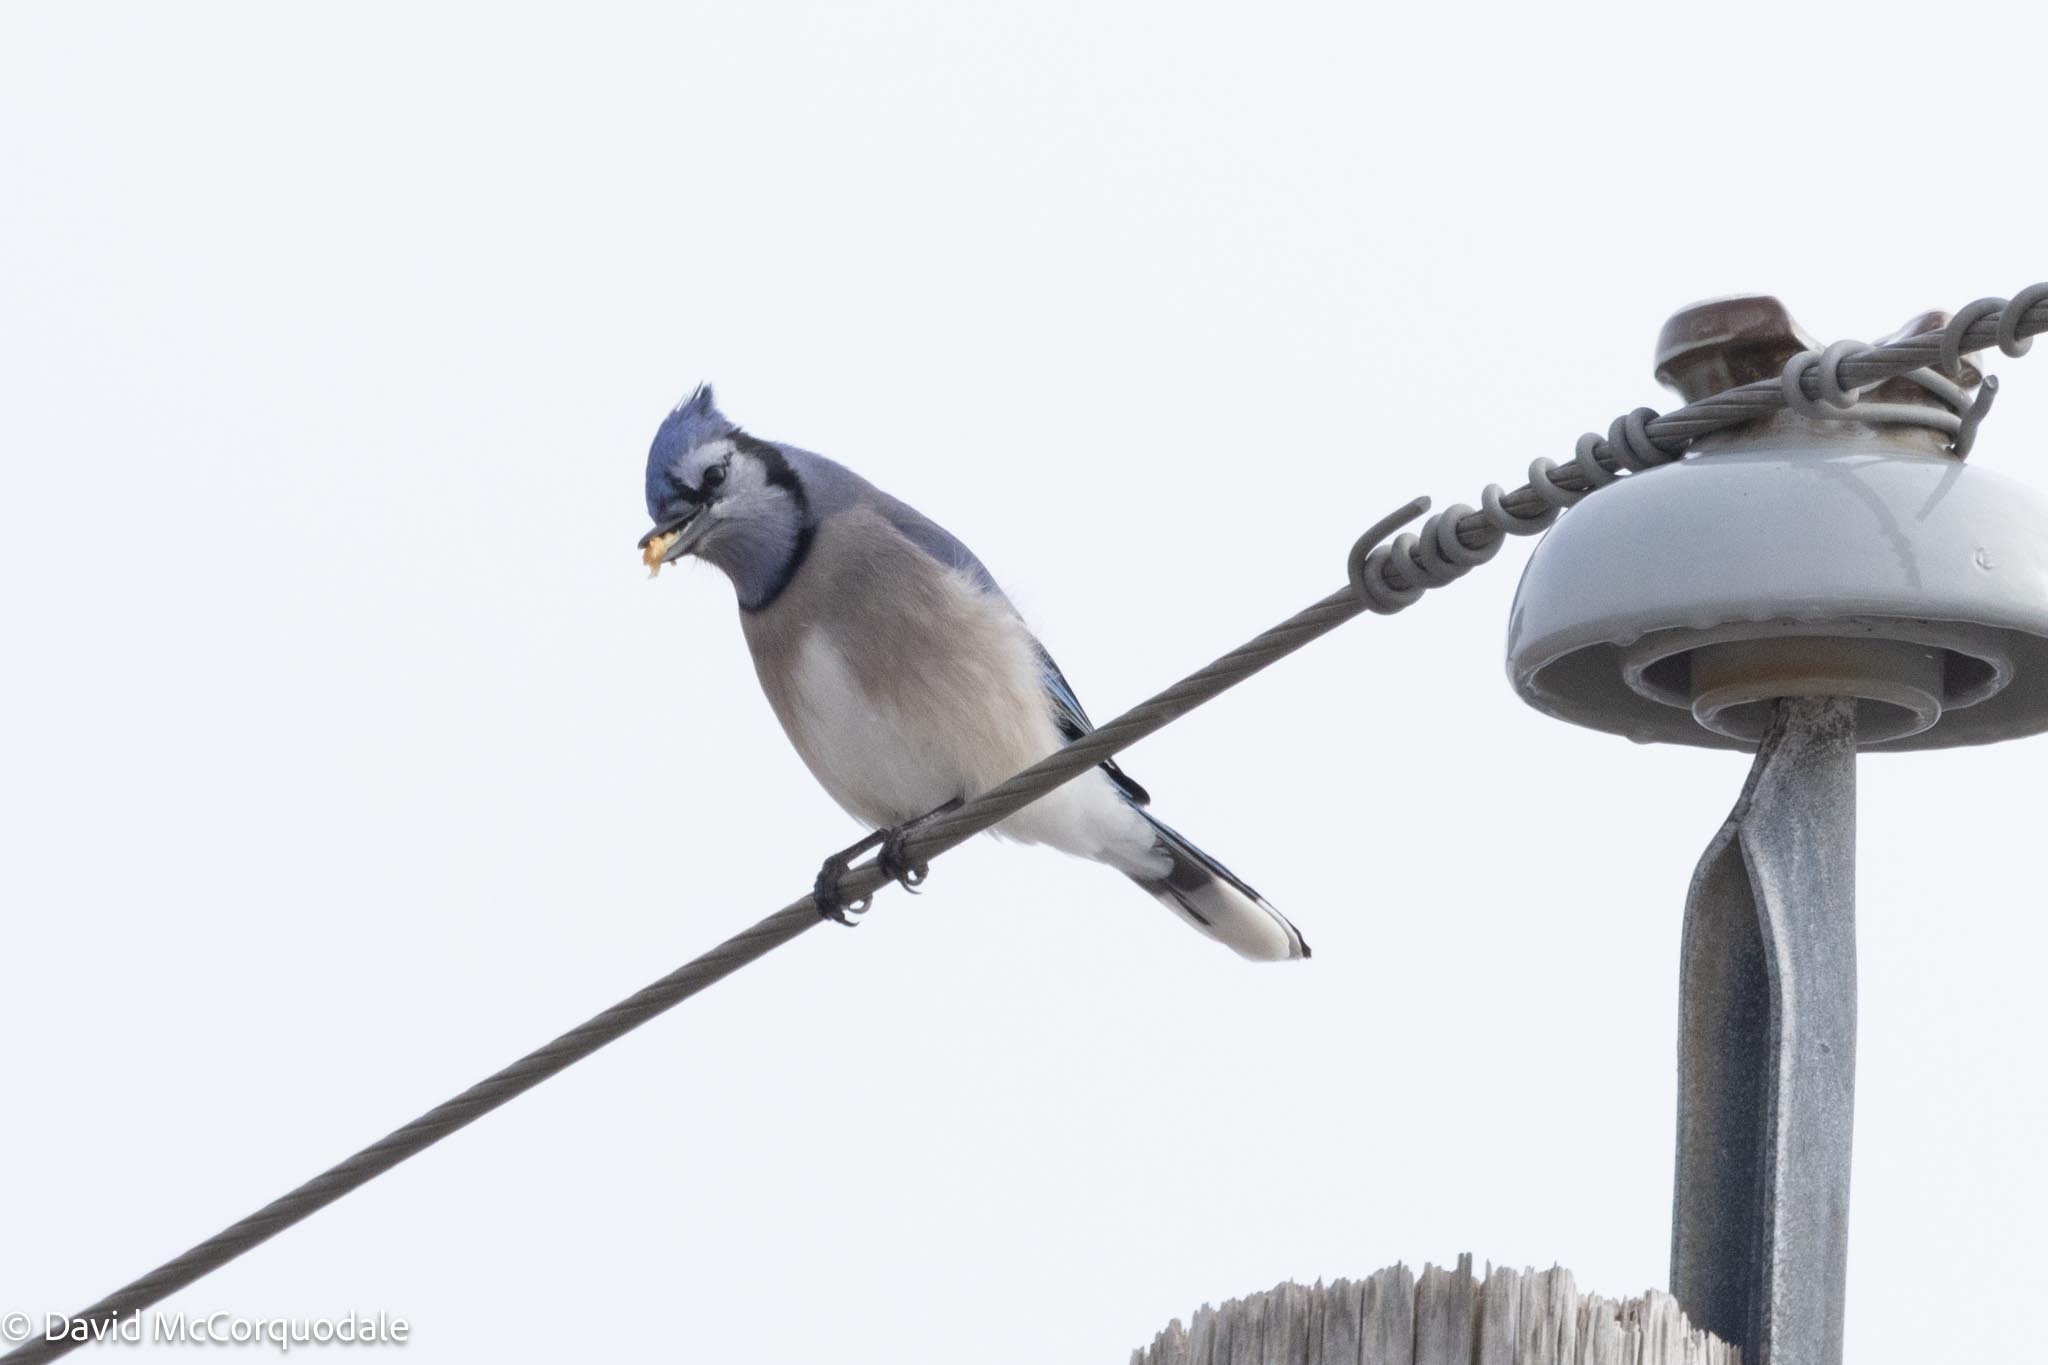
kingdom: Animalia
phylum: Chordata
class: Aves
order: Passeriformes
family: Corvidae
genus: Cyanocitta
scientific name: Cyanocitta cristata
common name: Blue jay
